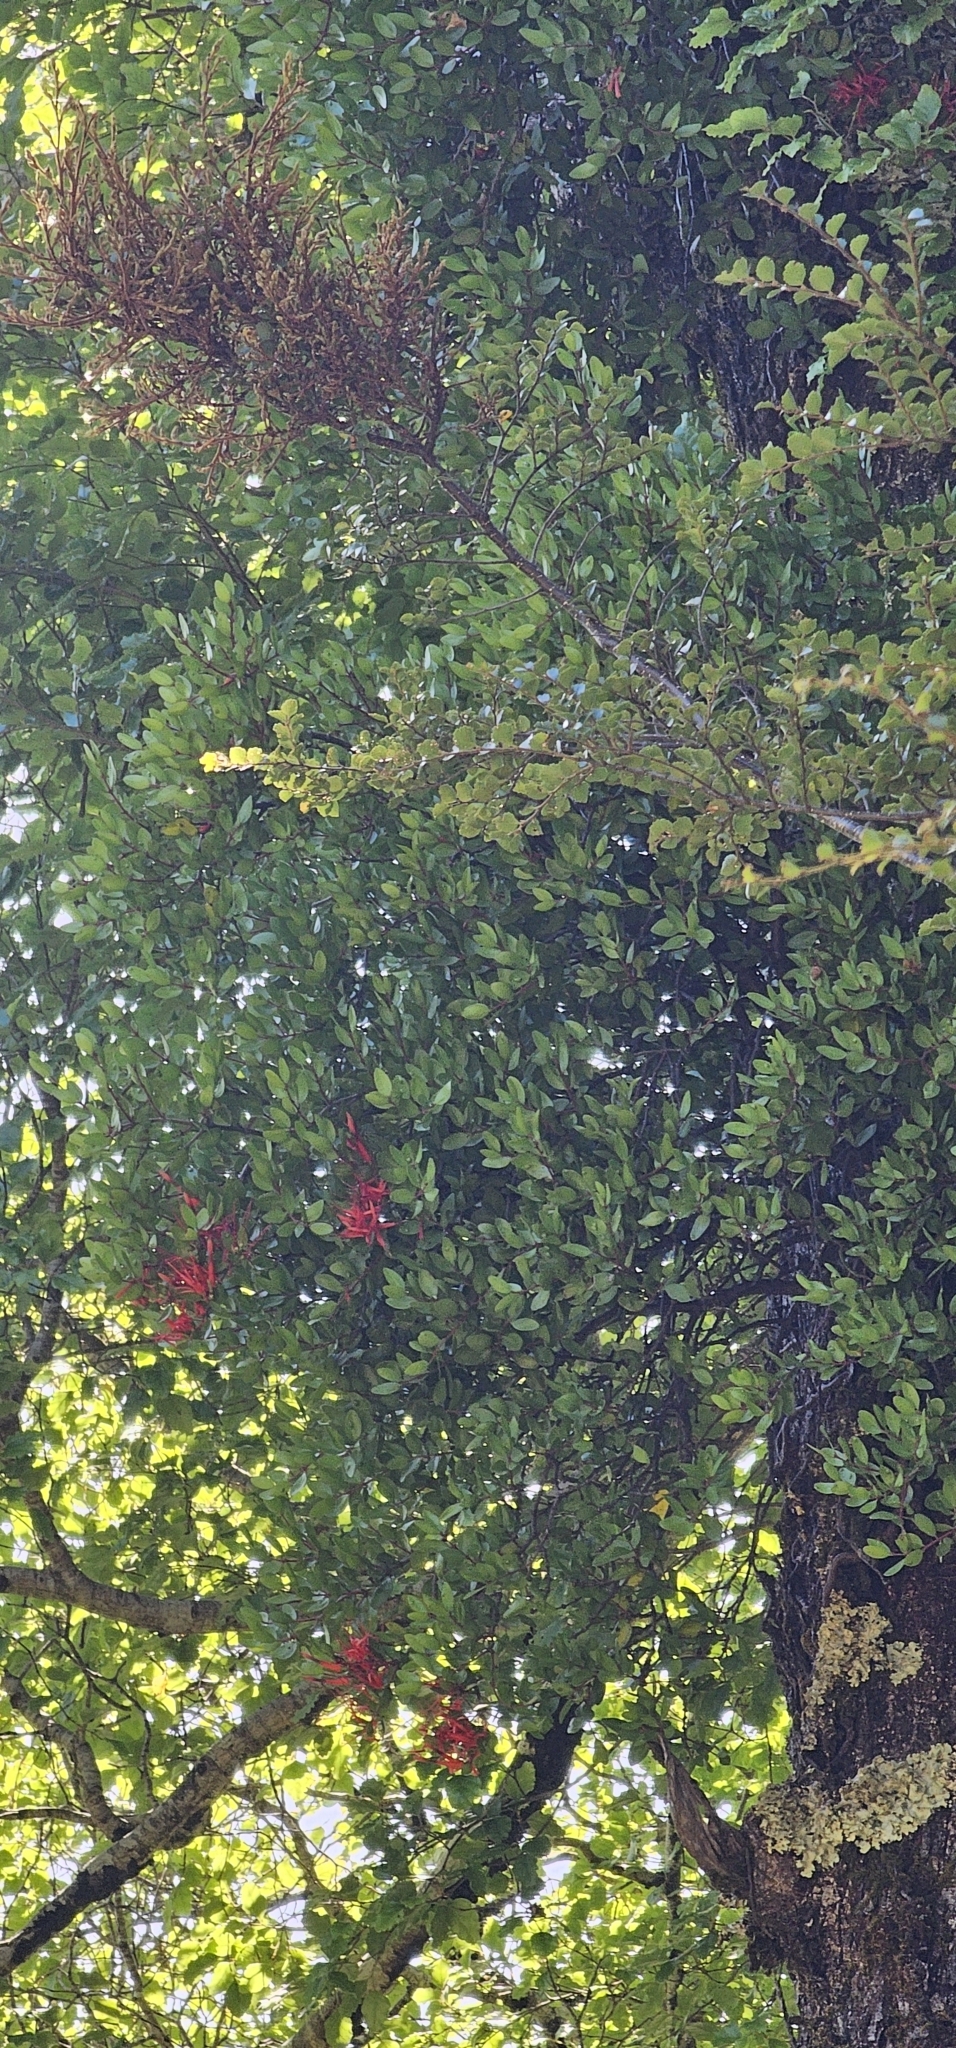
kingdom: Plantae
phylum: Tracheophyta
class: Magnoliopsida
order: Santalales
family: Loranthaceae
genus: Peraxilla
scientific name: Peraxilla tetrapetala
